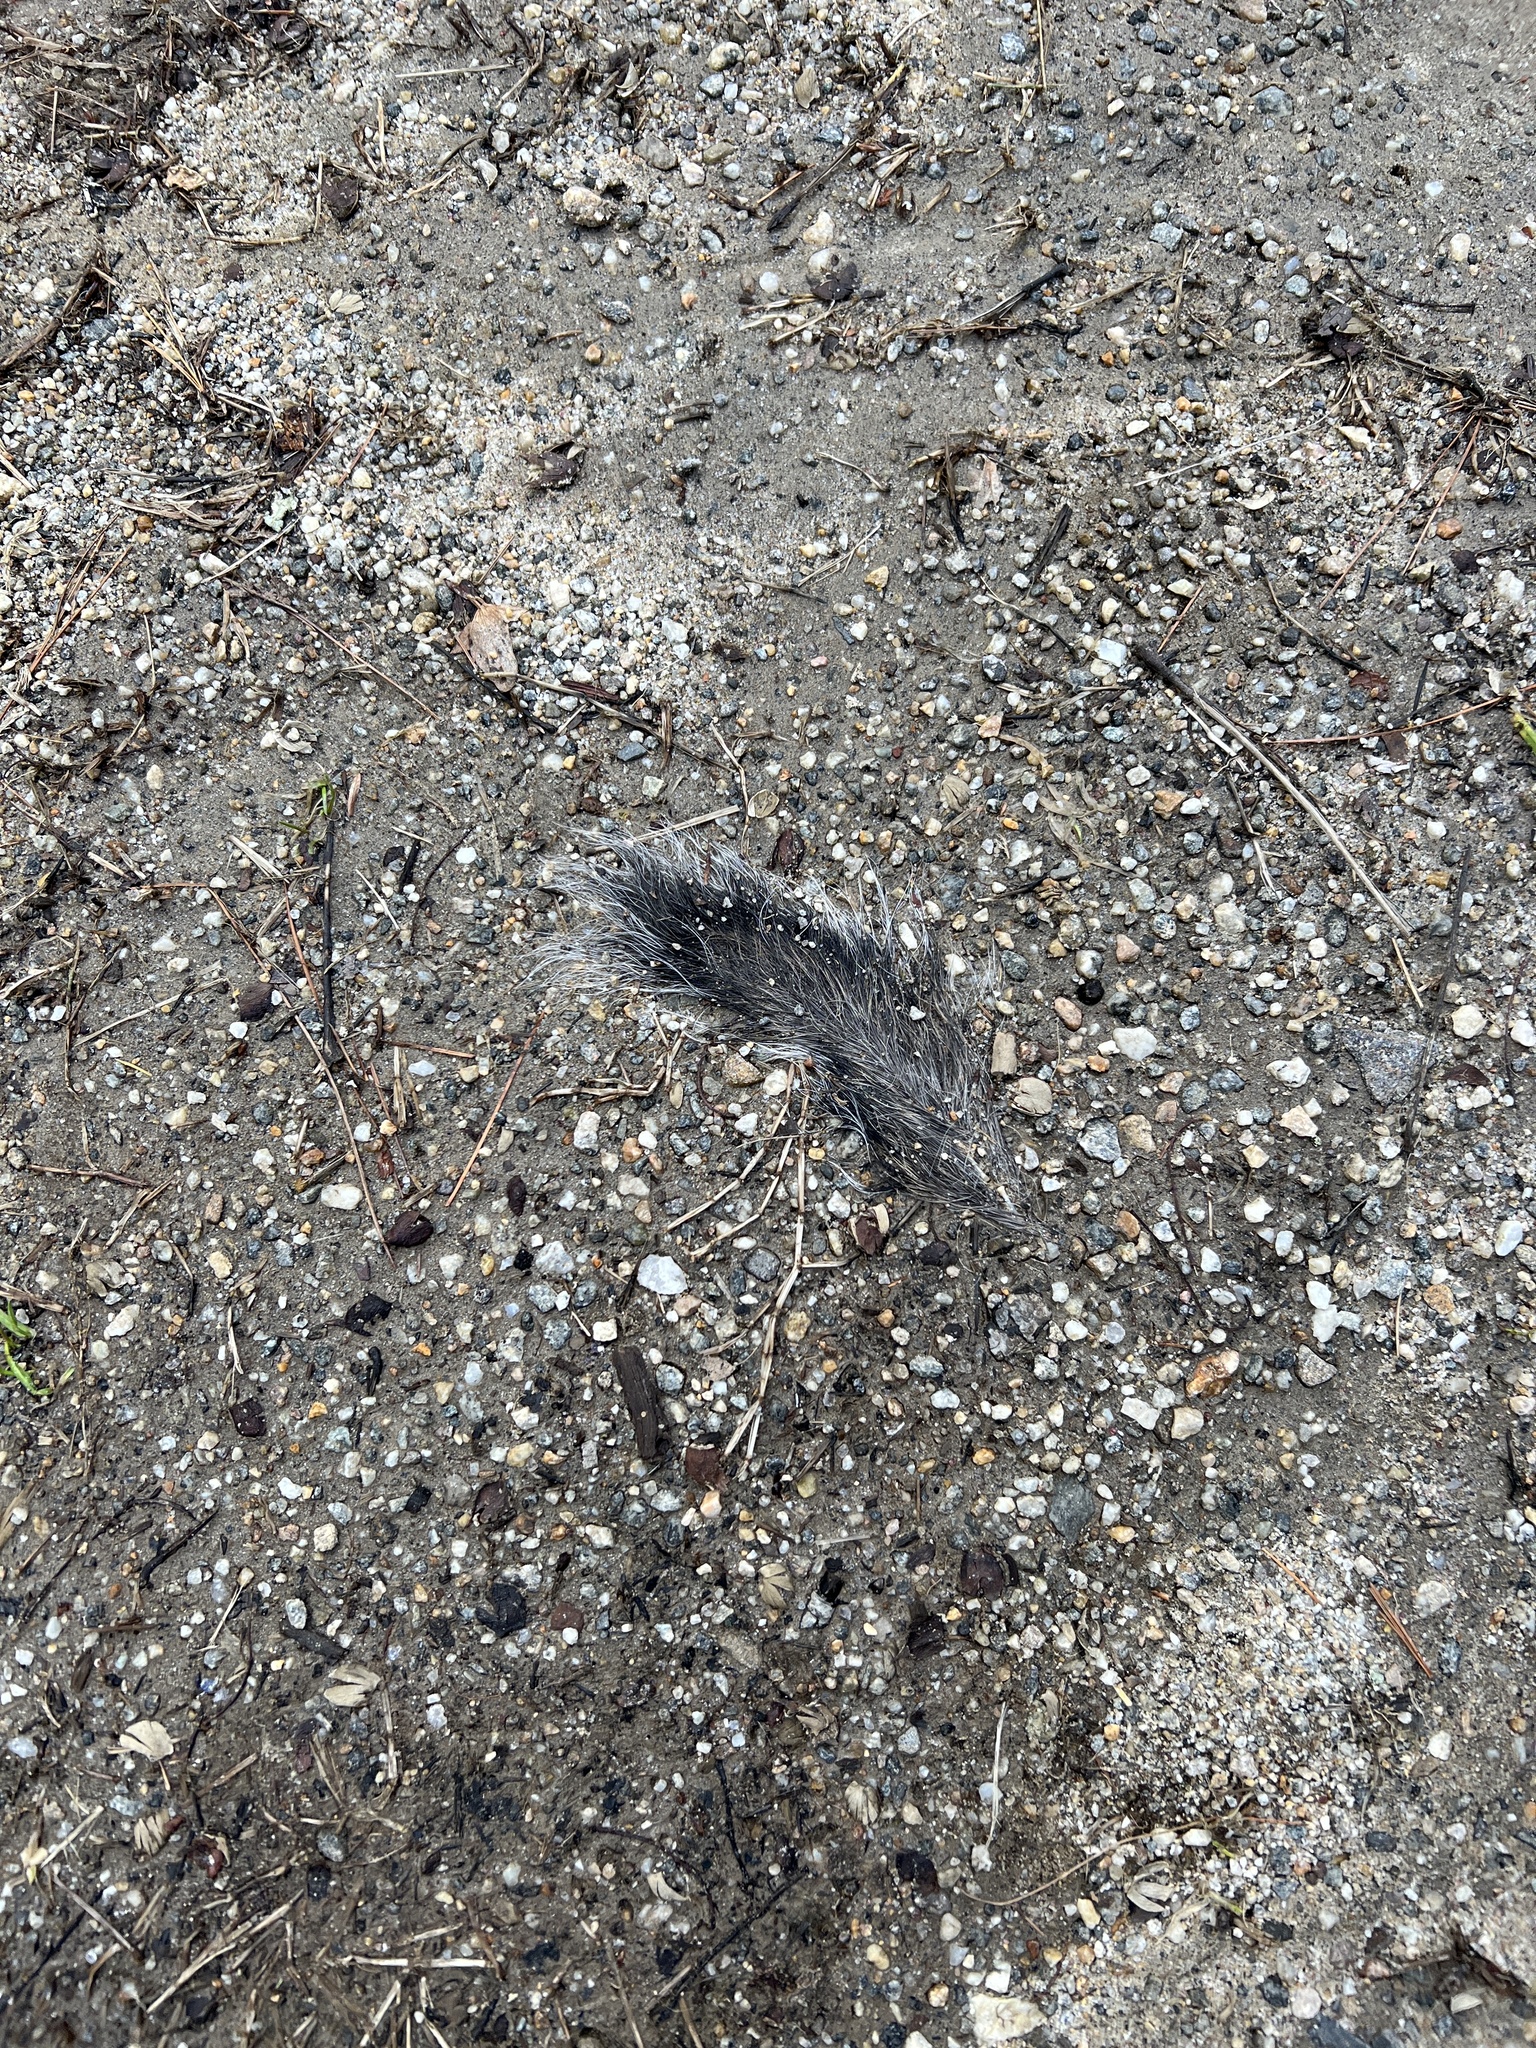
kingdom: Animalia
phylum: Chordata
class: Mammalia
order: Rodentia
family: Sciuridae
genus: Sciurus
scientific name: Sciurus carolinensis
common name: Eastern gray squirrel
